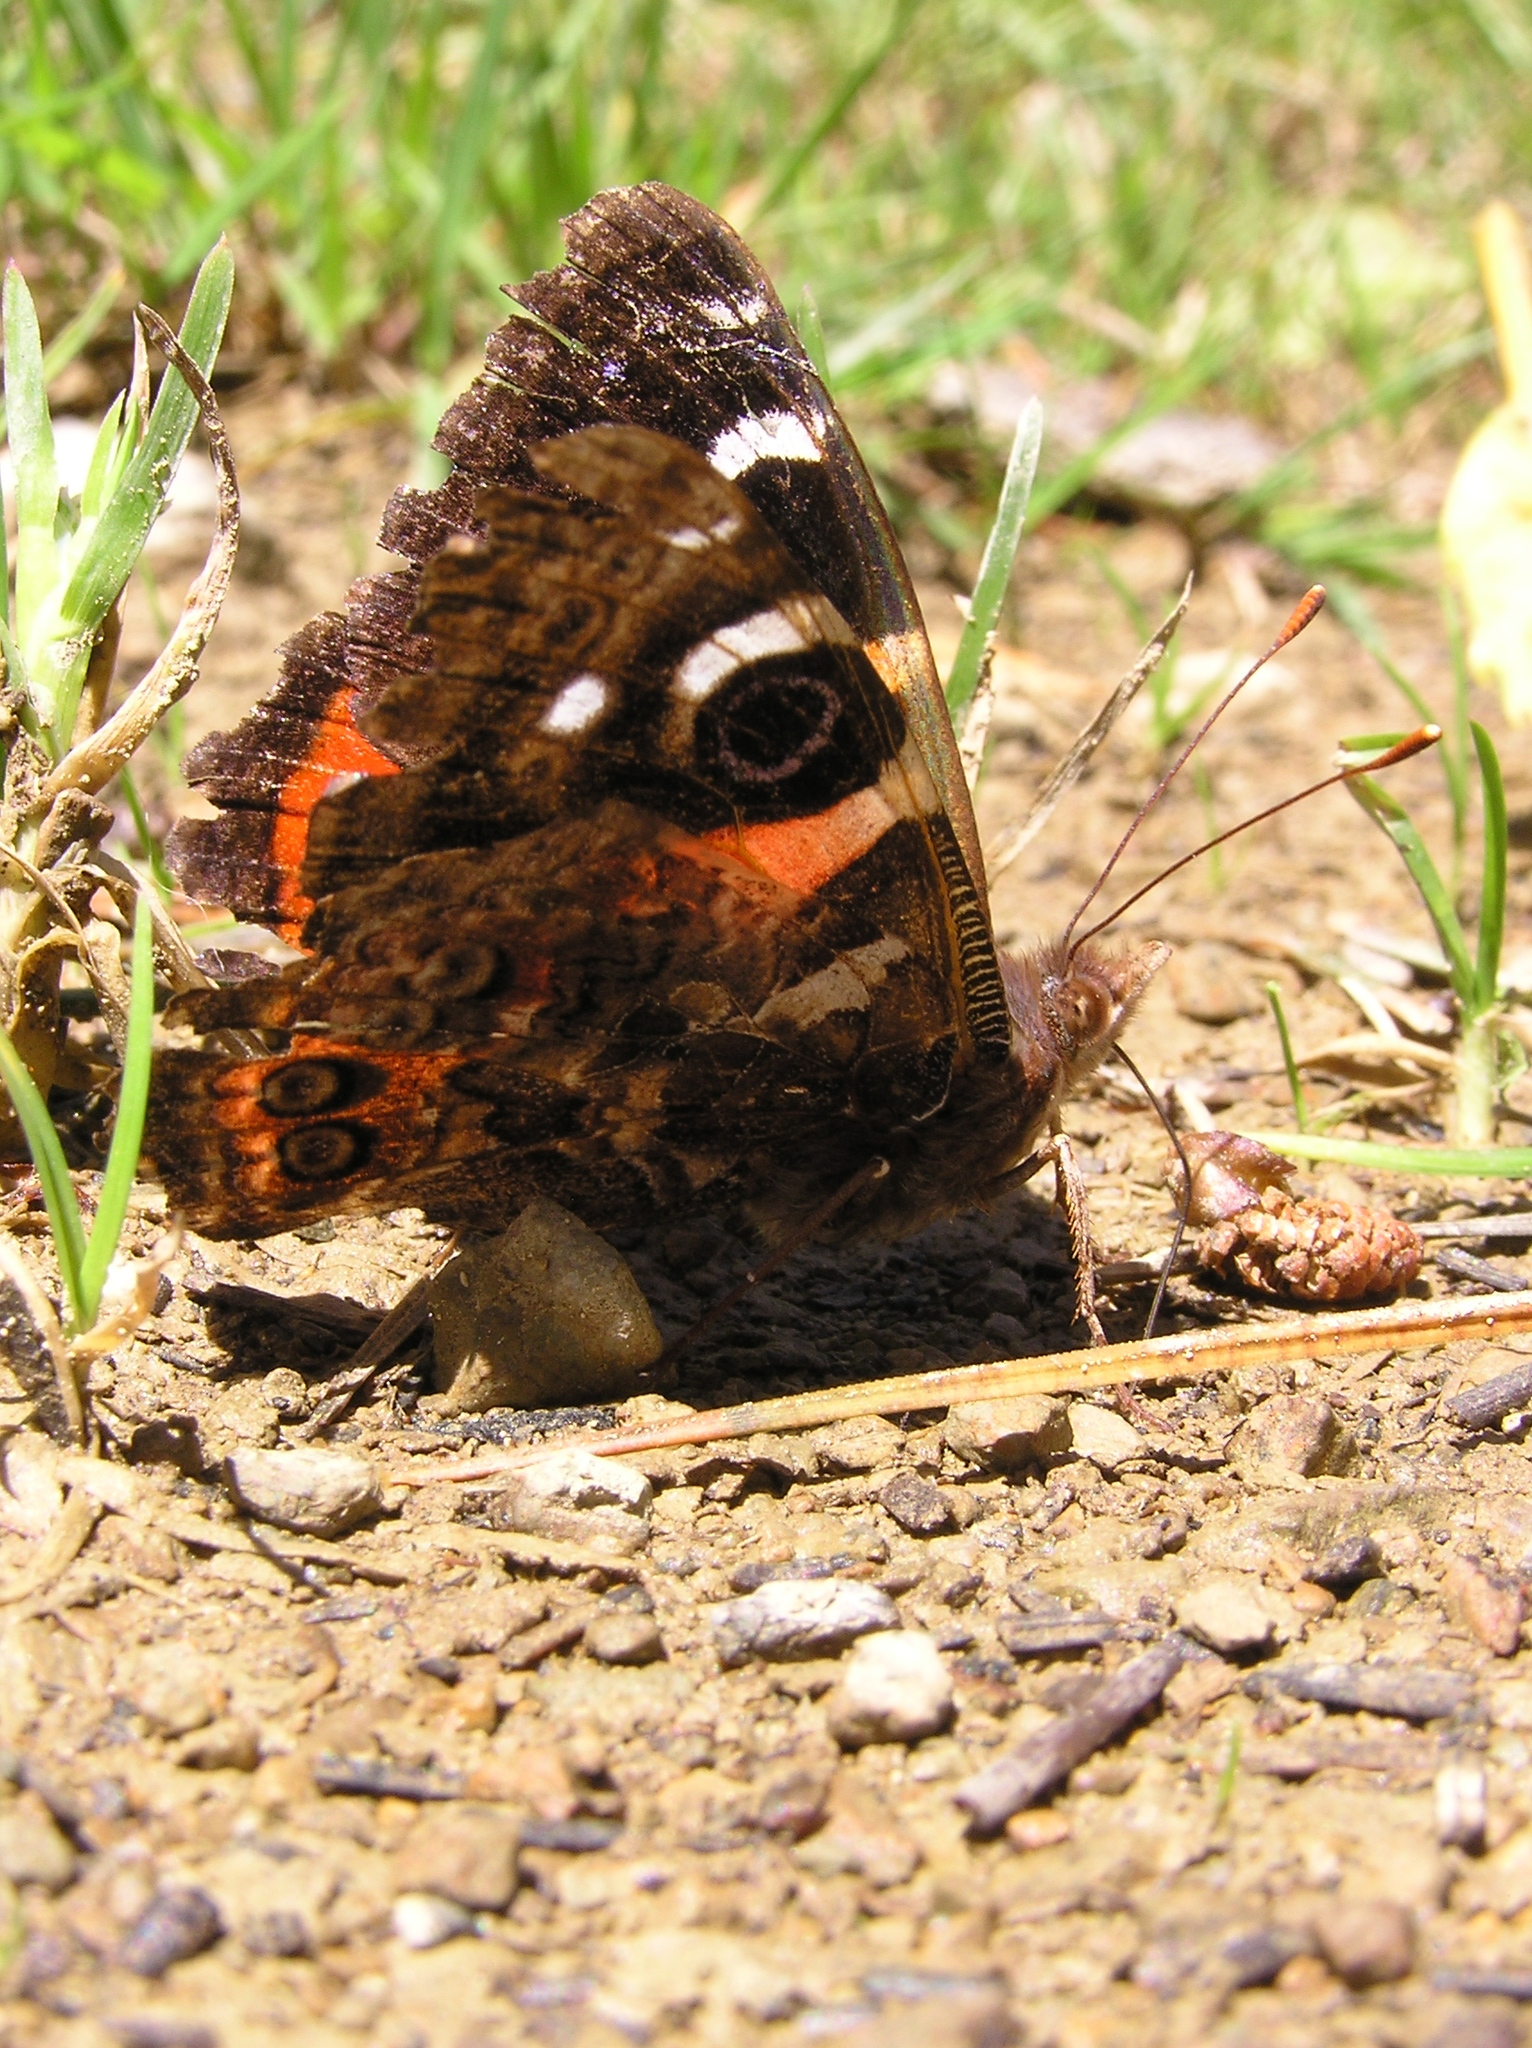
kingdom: Animalia
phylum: Arthropoda
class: Insecta
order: Lepidoptera
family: Nymphalidae
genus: Vanessa
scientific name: Vanessa gonerilla
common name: New zealand red admiral
